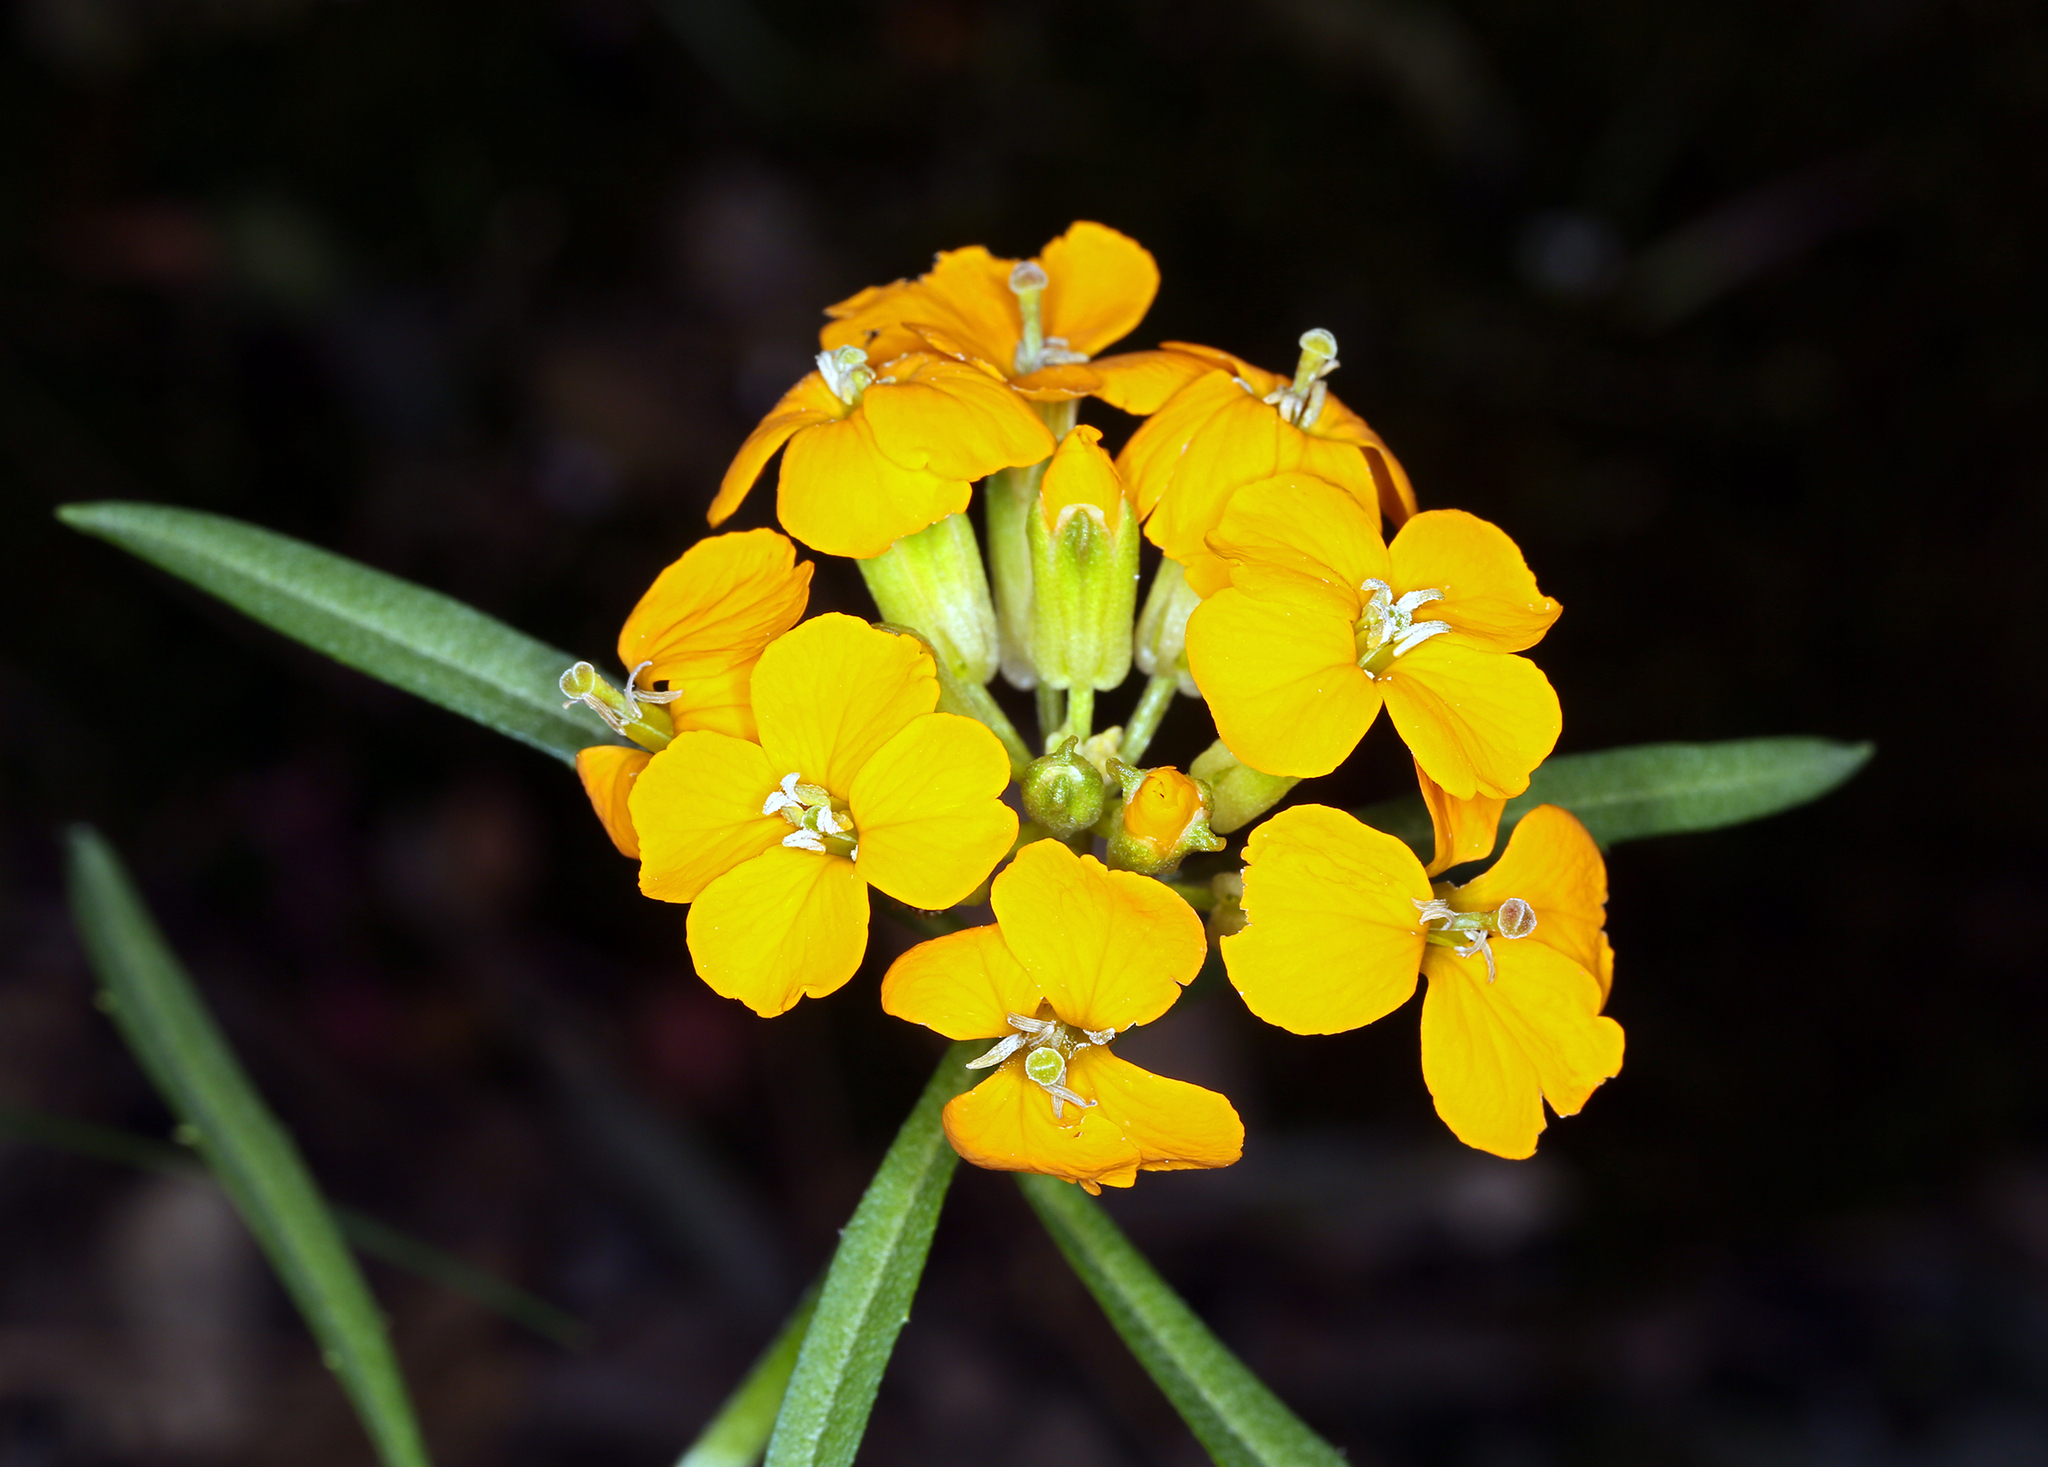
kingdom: Plantae
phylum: Tracheophyta
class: Magnoliopsida
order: Brassicales
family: Brassicaceae
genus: Erysimum
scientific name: Erysimum capitatum
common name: Western wallflower
